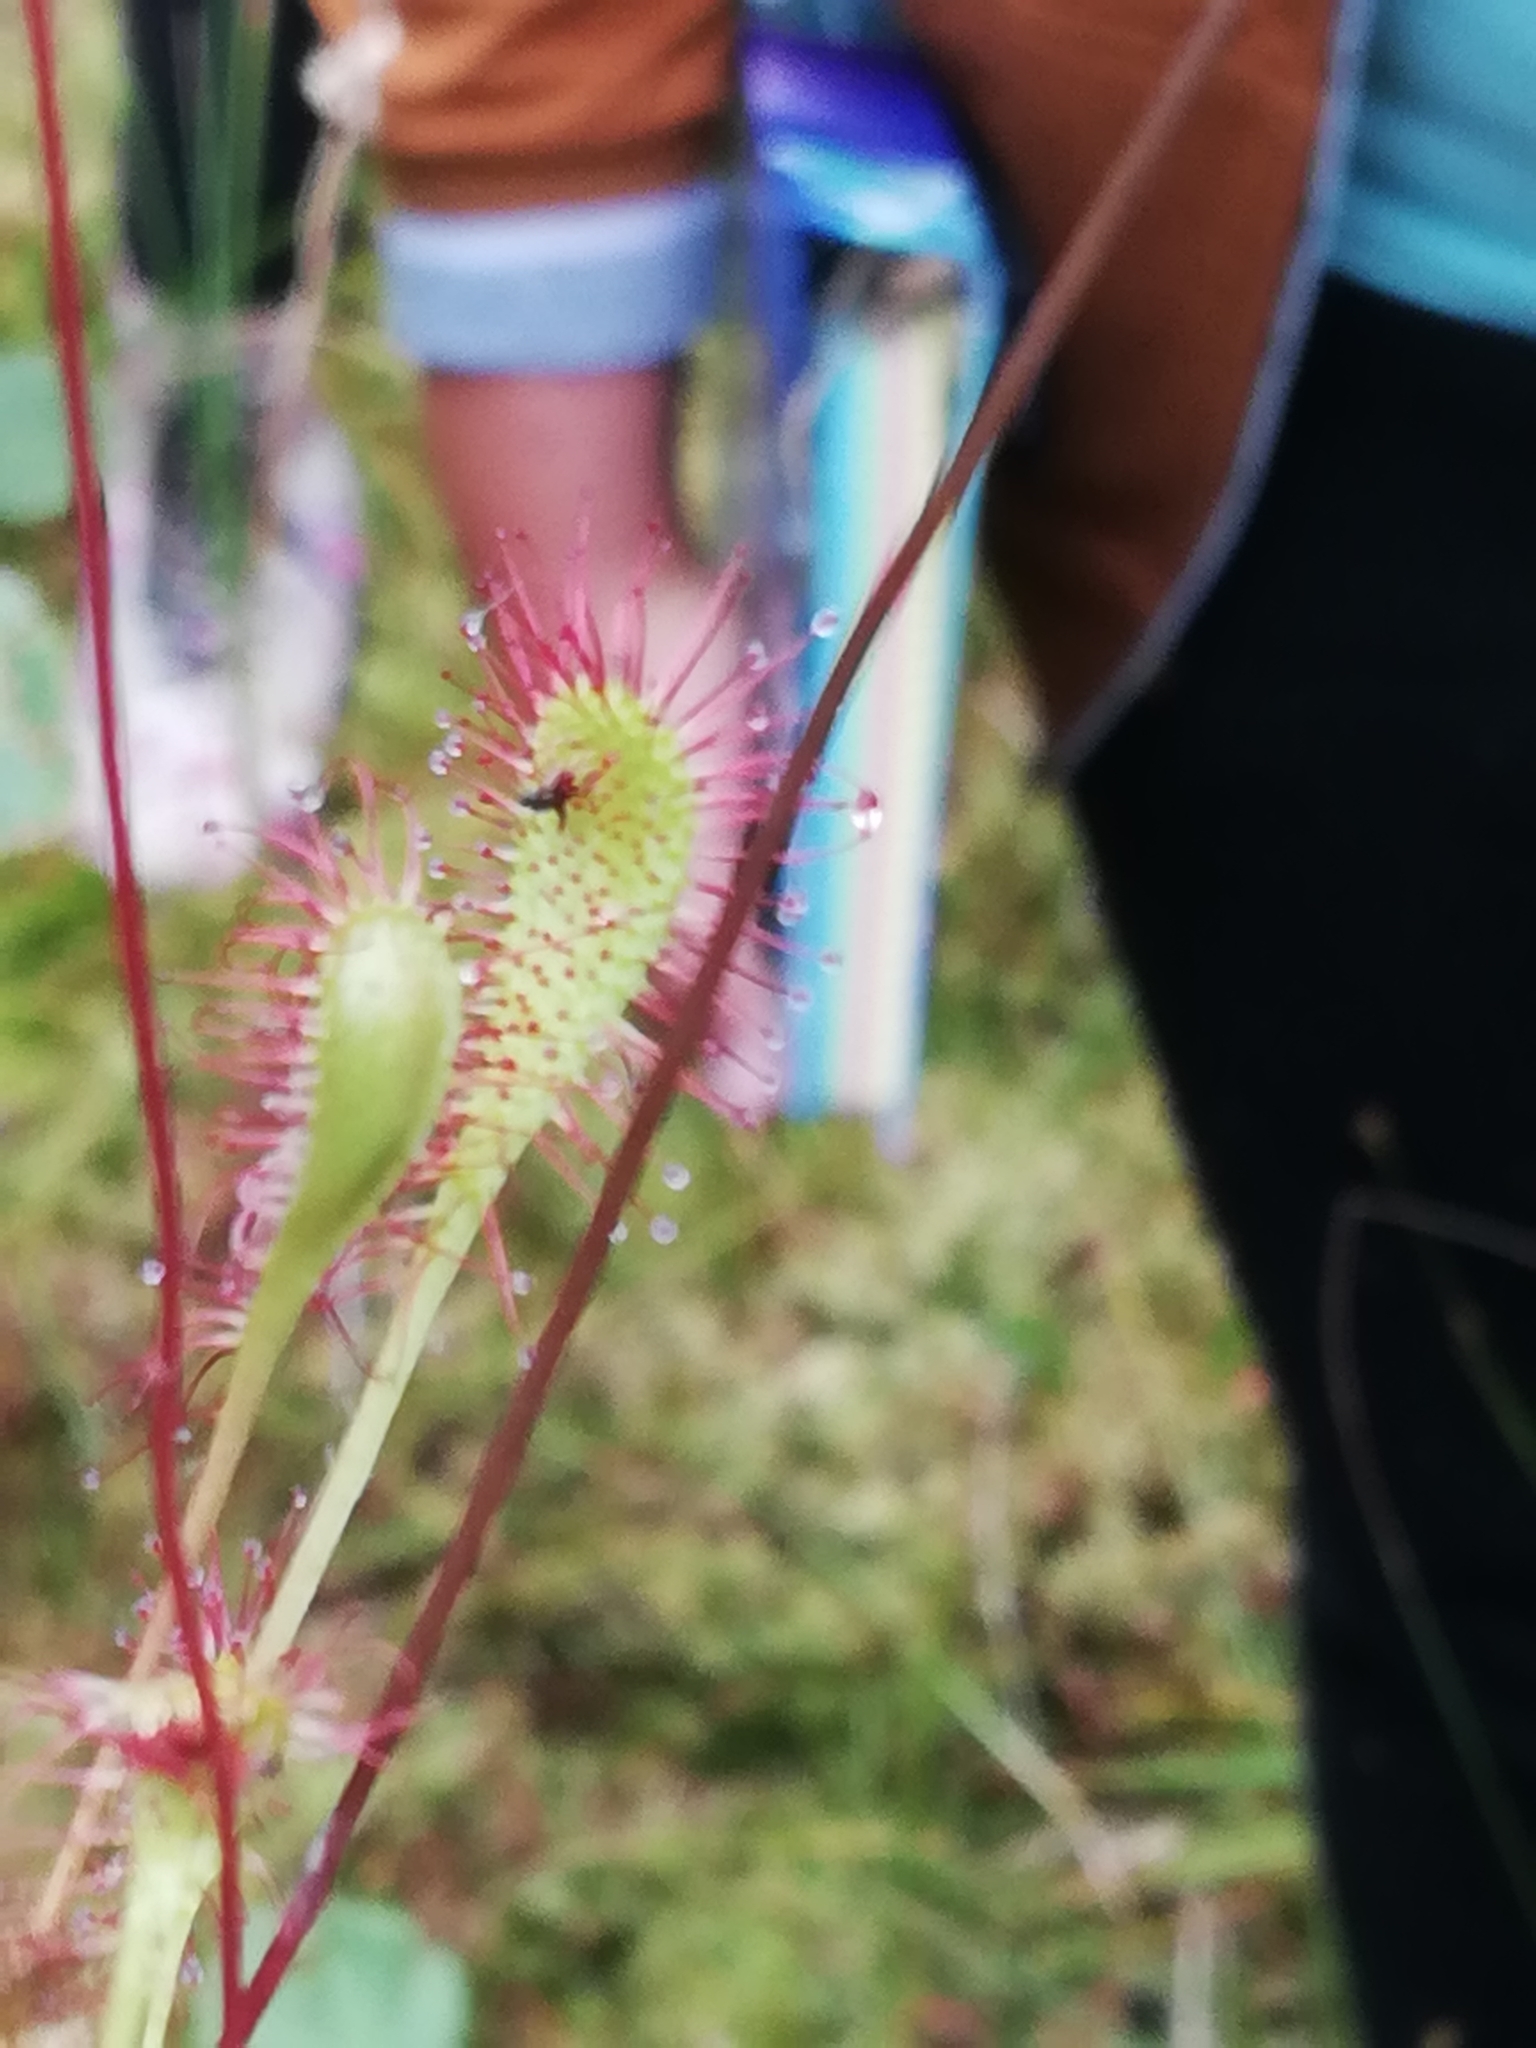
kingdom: Plantae
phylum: Tracheophyta
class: Magnoliopsida
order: Caryophyllales
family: Droseraceae
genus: Drosera
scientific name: Drosera obovata
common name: Ivan's paddle
